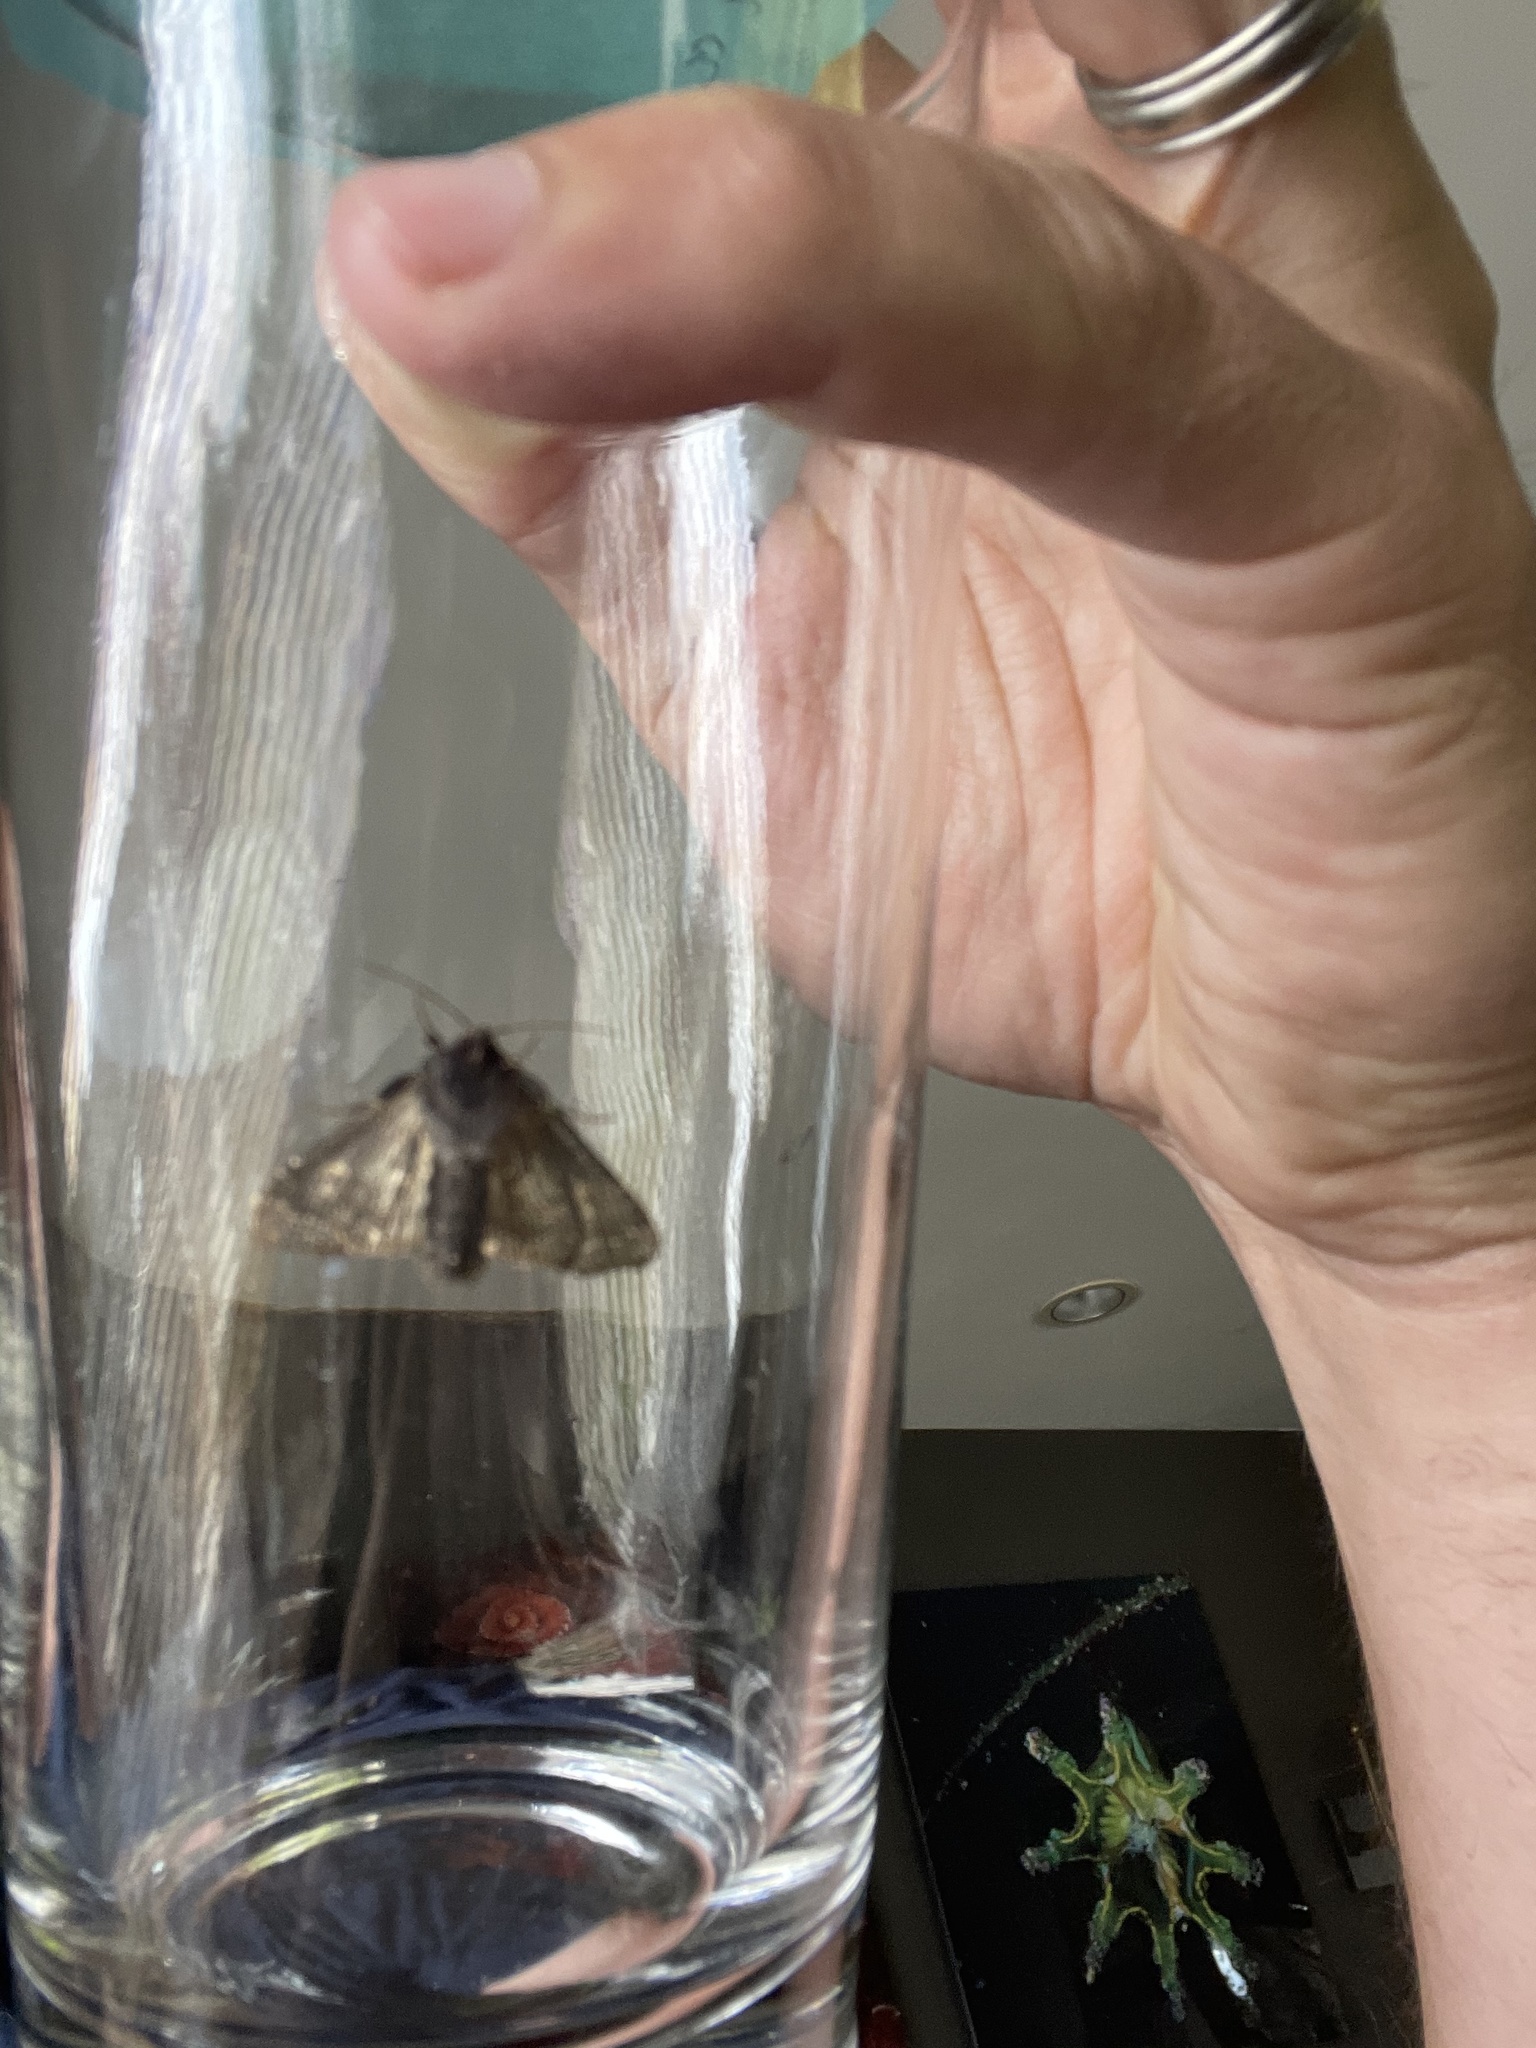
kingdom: Animalia
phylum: Arthropoda
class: Insecta
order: Lepidoptera
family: Noctuidae
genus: Euplexia
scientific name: Euplexia benesimilis
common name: American angle shades
